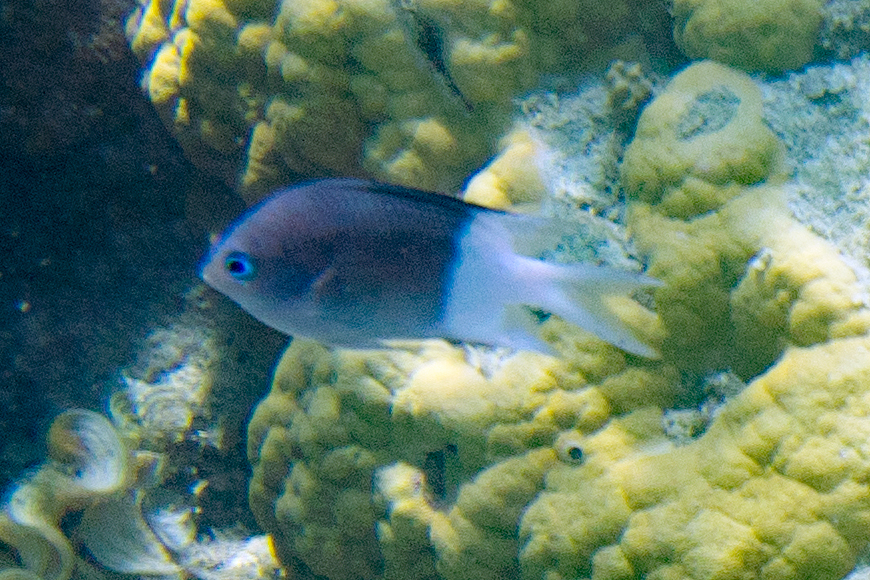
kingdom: Animalia
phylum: Chordata
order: Perciformes
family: Pomacentridae
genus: Acanthochromis
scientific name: Acanthochromis polyacanthus
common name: Spiny chromis
